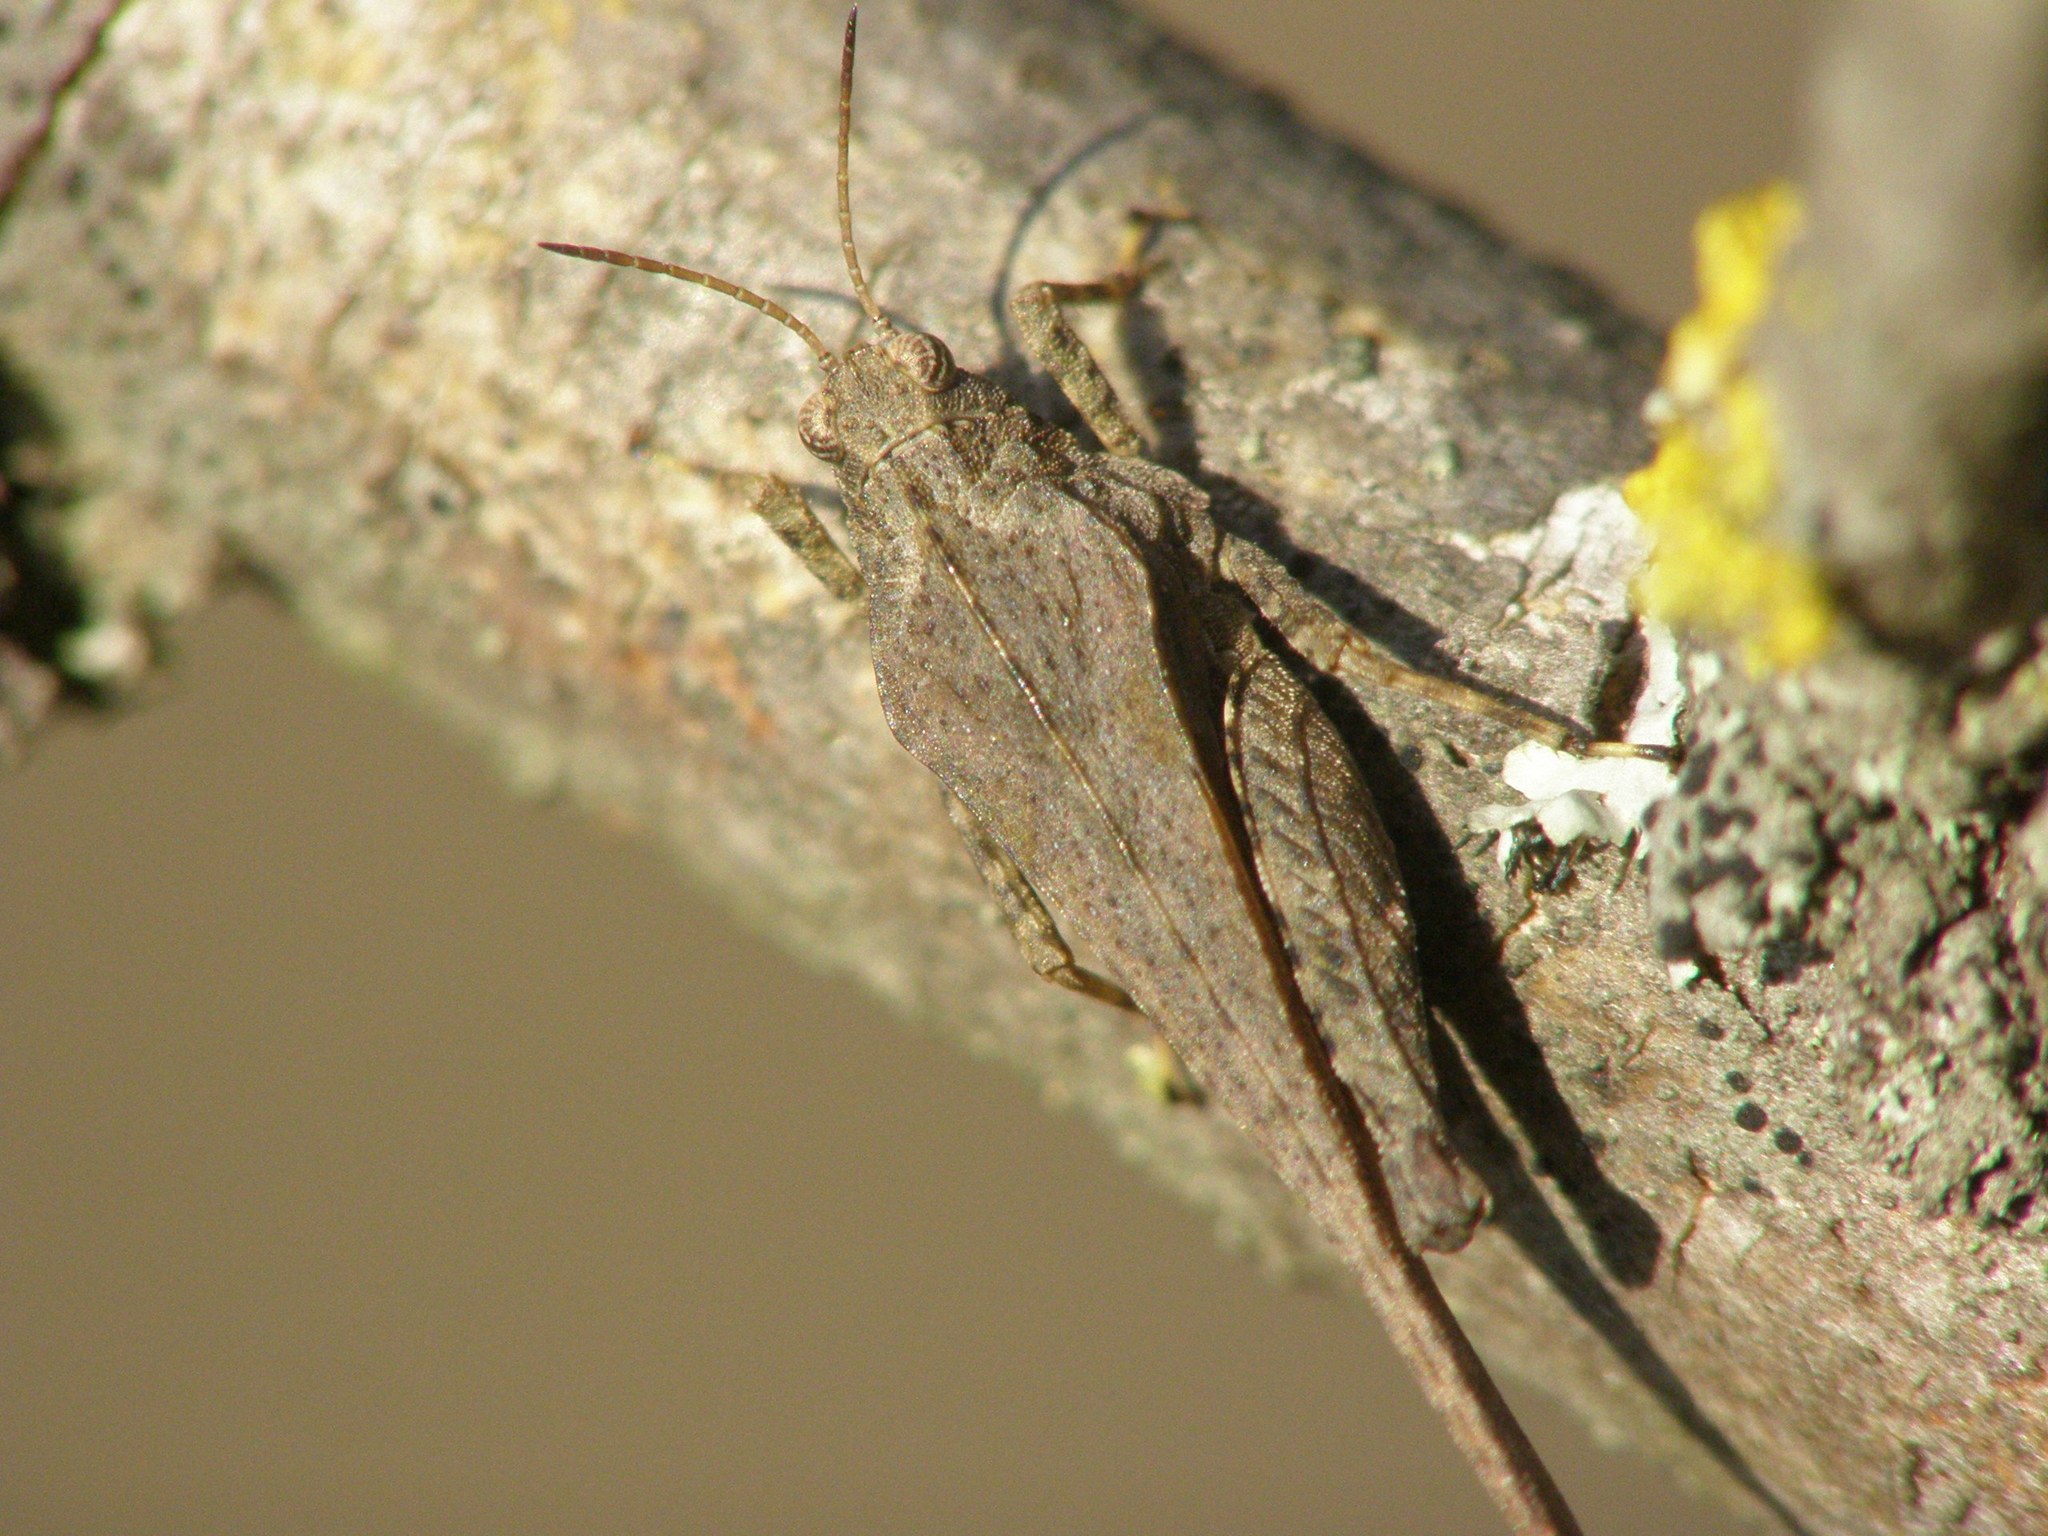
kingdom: Animalia
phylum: Arthropoda
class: Insecta
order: Orthoptera
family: Tetrigidae
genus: Tetrix
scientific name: Tetrix subulata
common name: Slender ground-hopper
